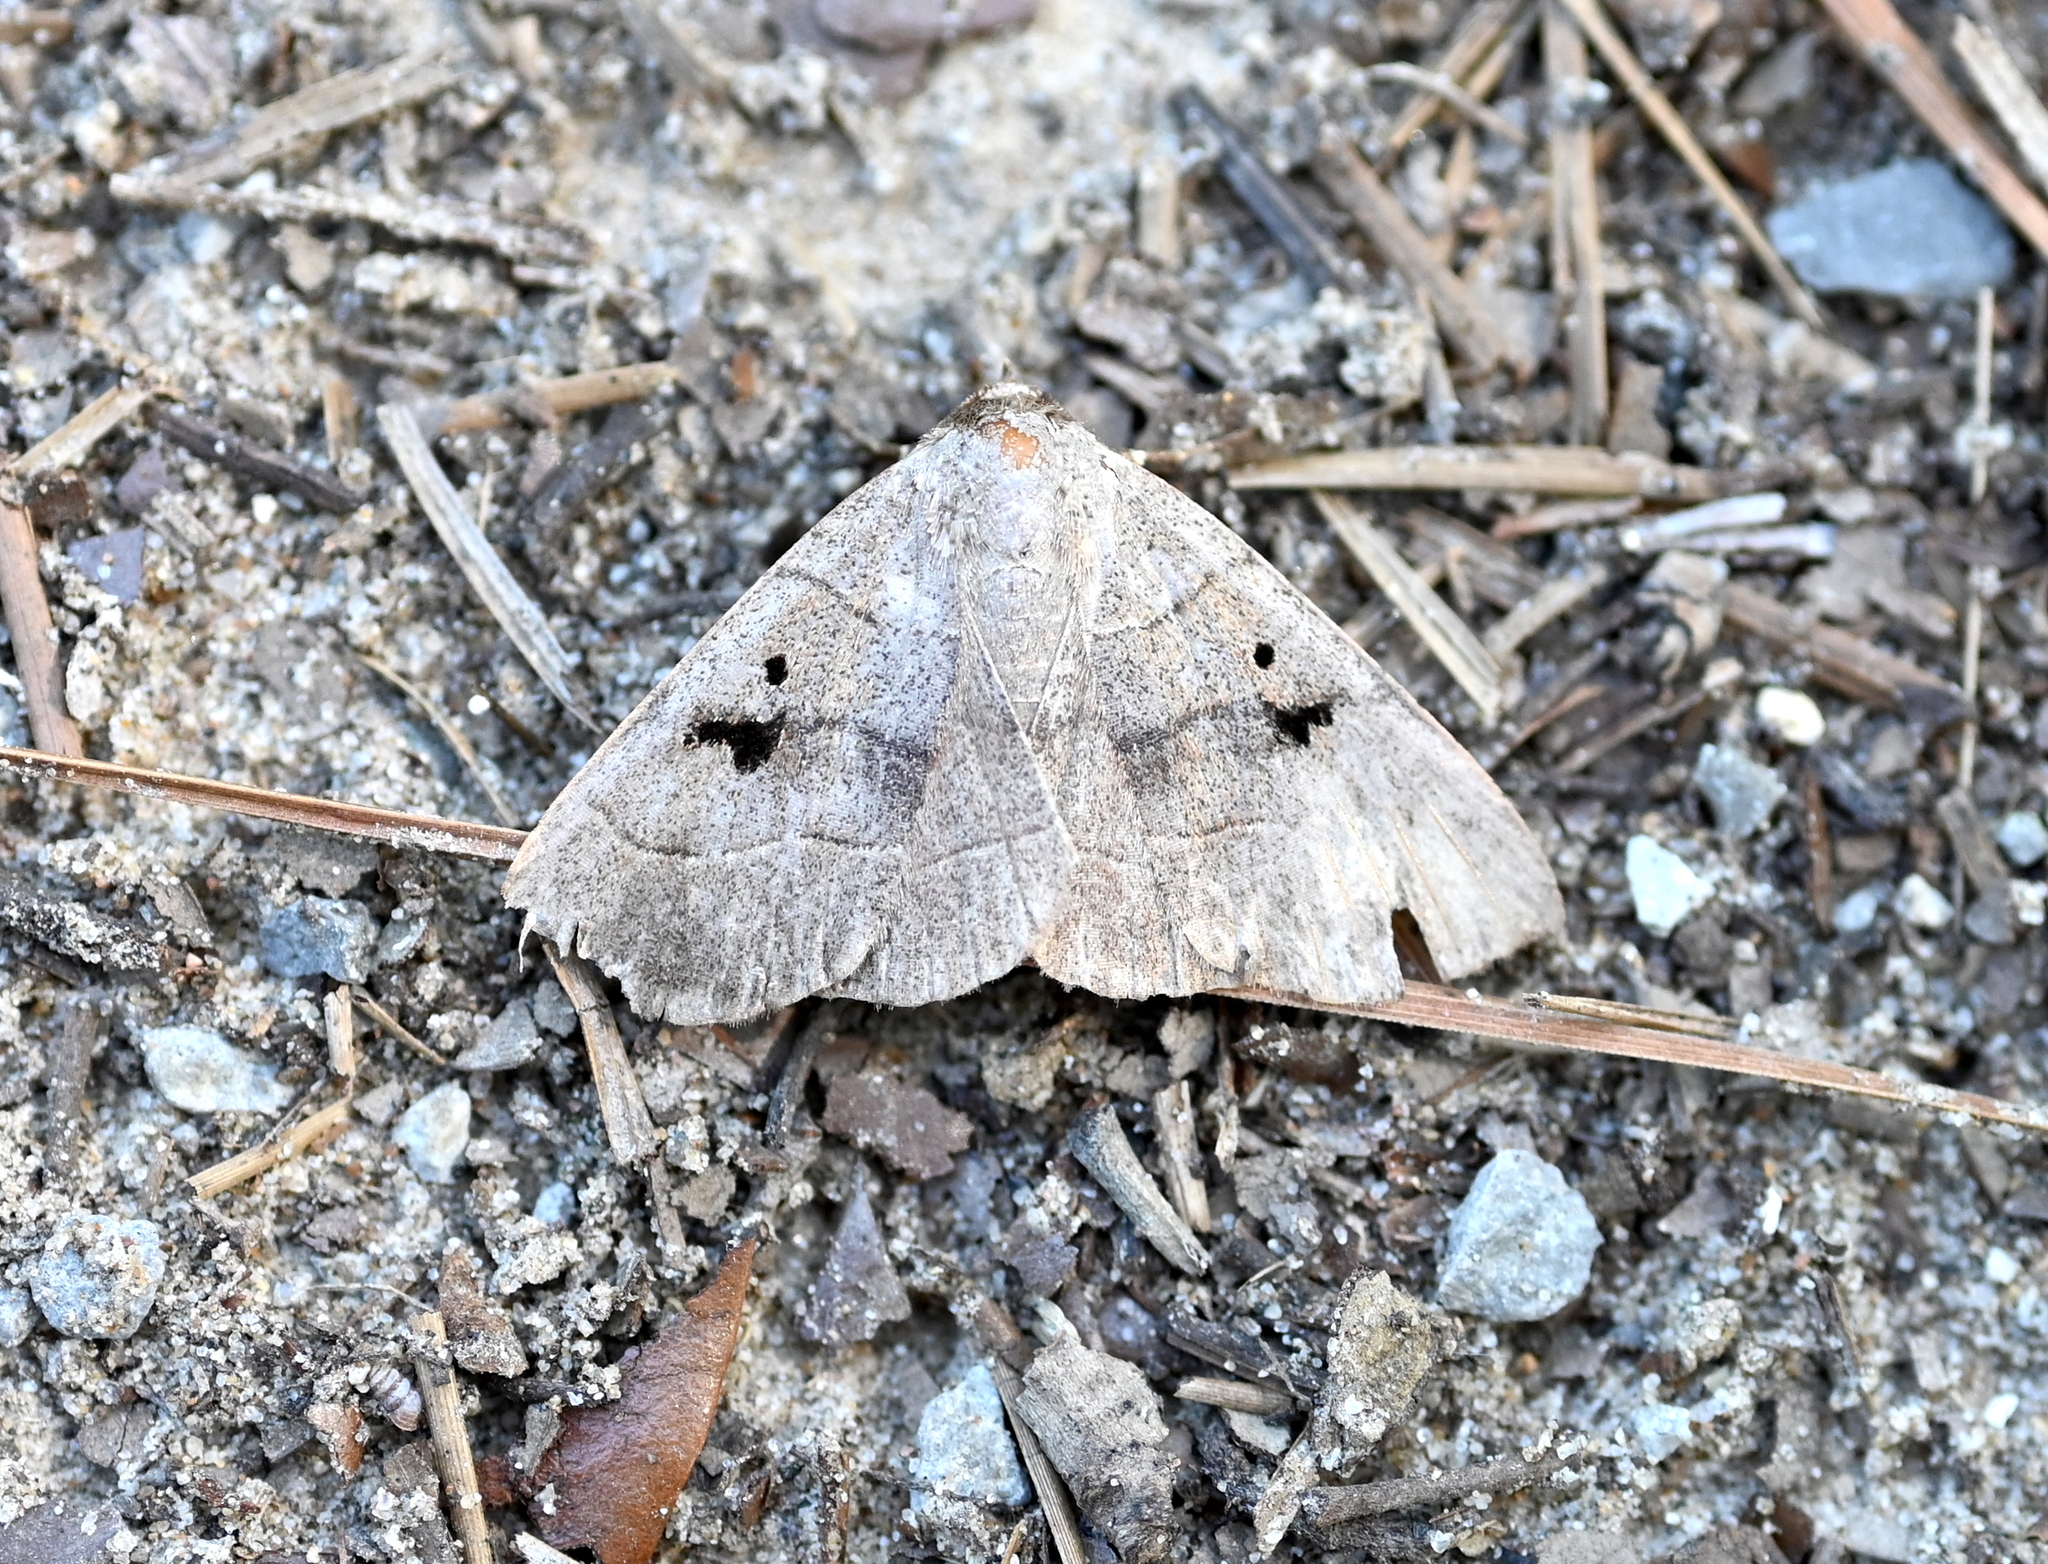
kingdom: Animalia
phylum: Arthropoda
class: Insecta
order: Lepidoptera
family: Erebidae
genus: Panopoda
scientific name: Panopoda carneicosta
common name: Brown panopoda moth
